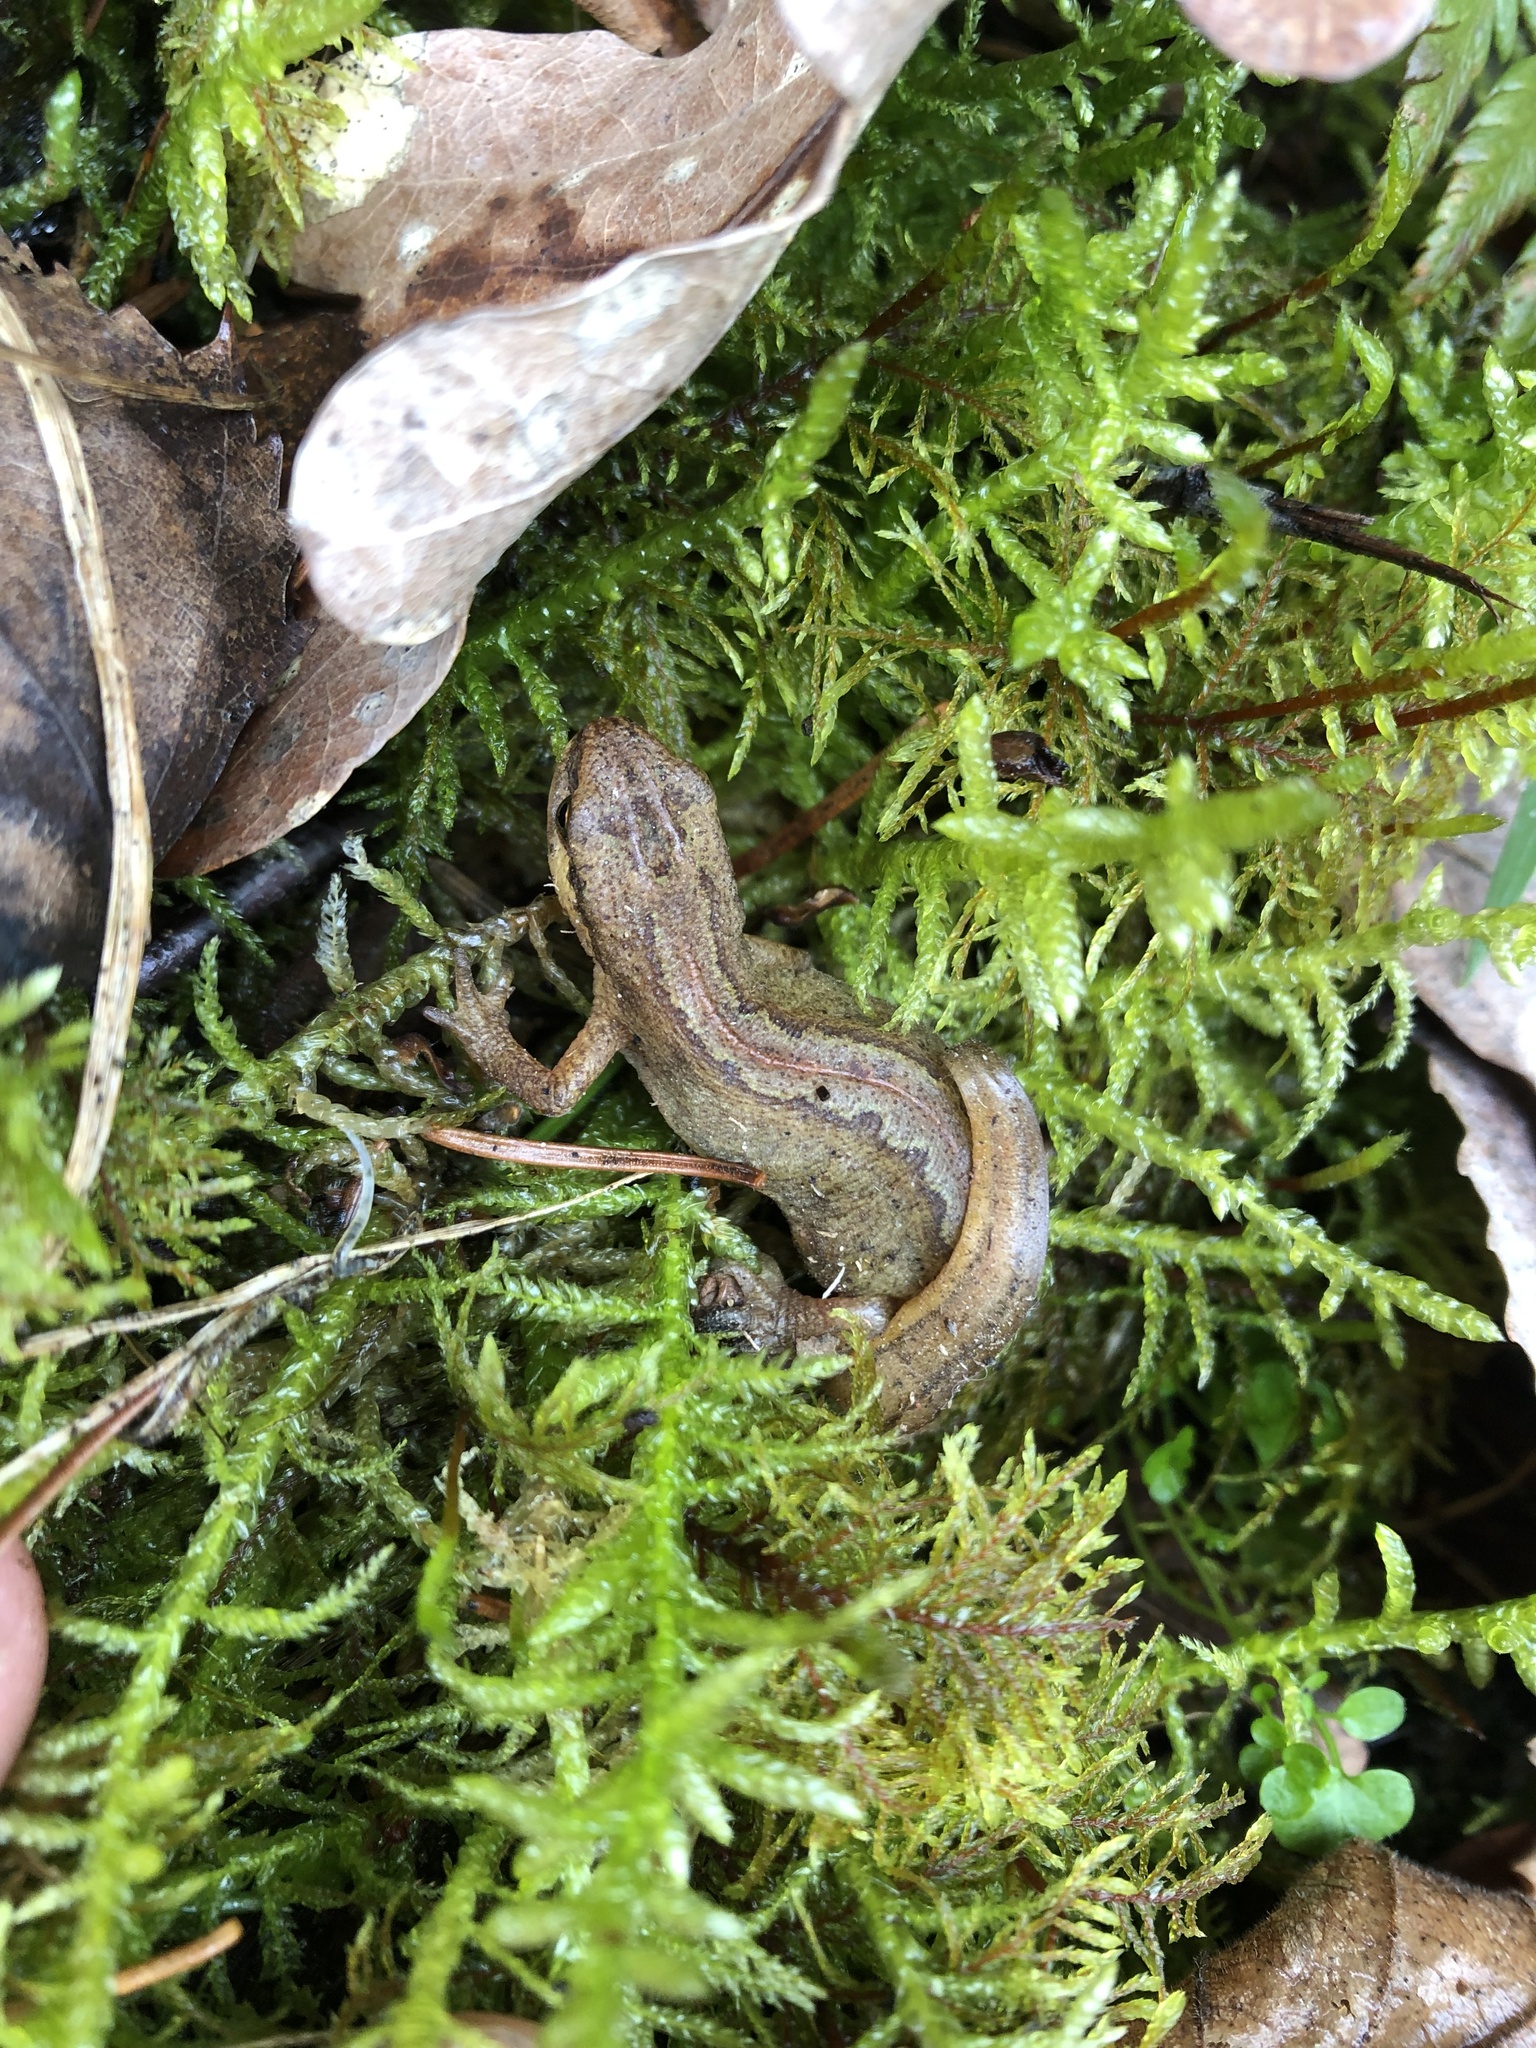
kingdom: Animalia
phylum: Chordata
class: Amphibia
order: Caudata
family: Salamandridae
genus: Lissotriton
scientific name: Lissotriton helveticus
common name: Palmate newt
